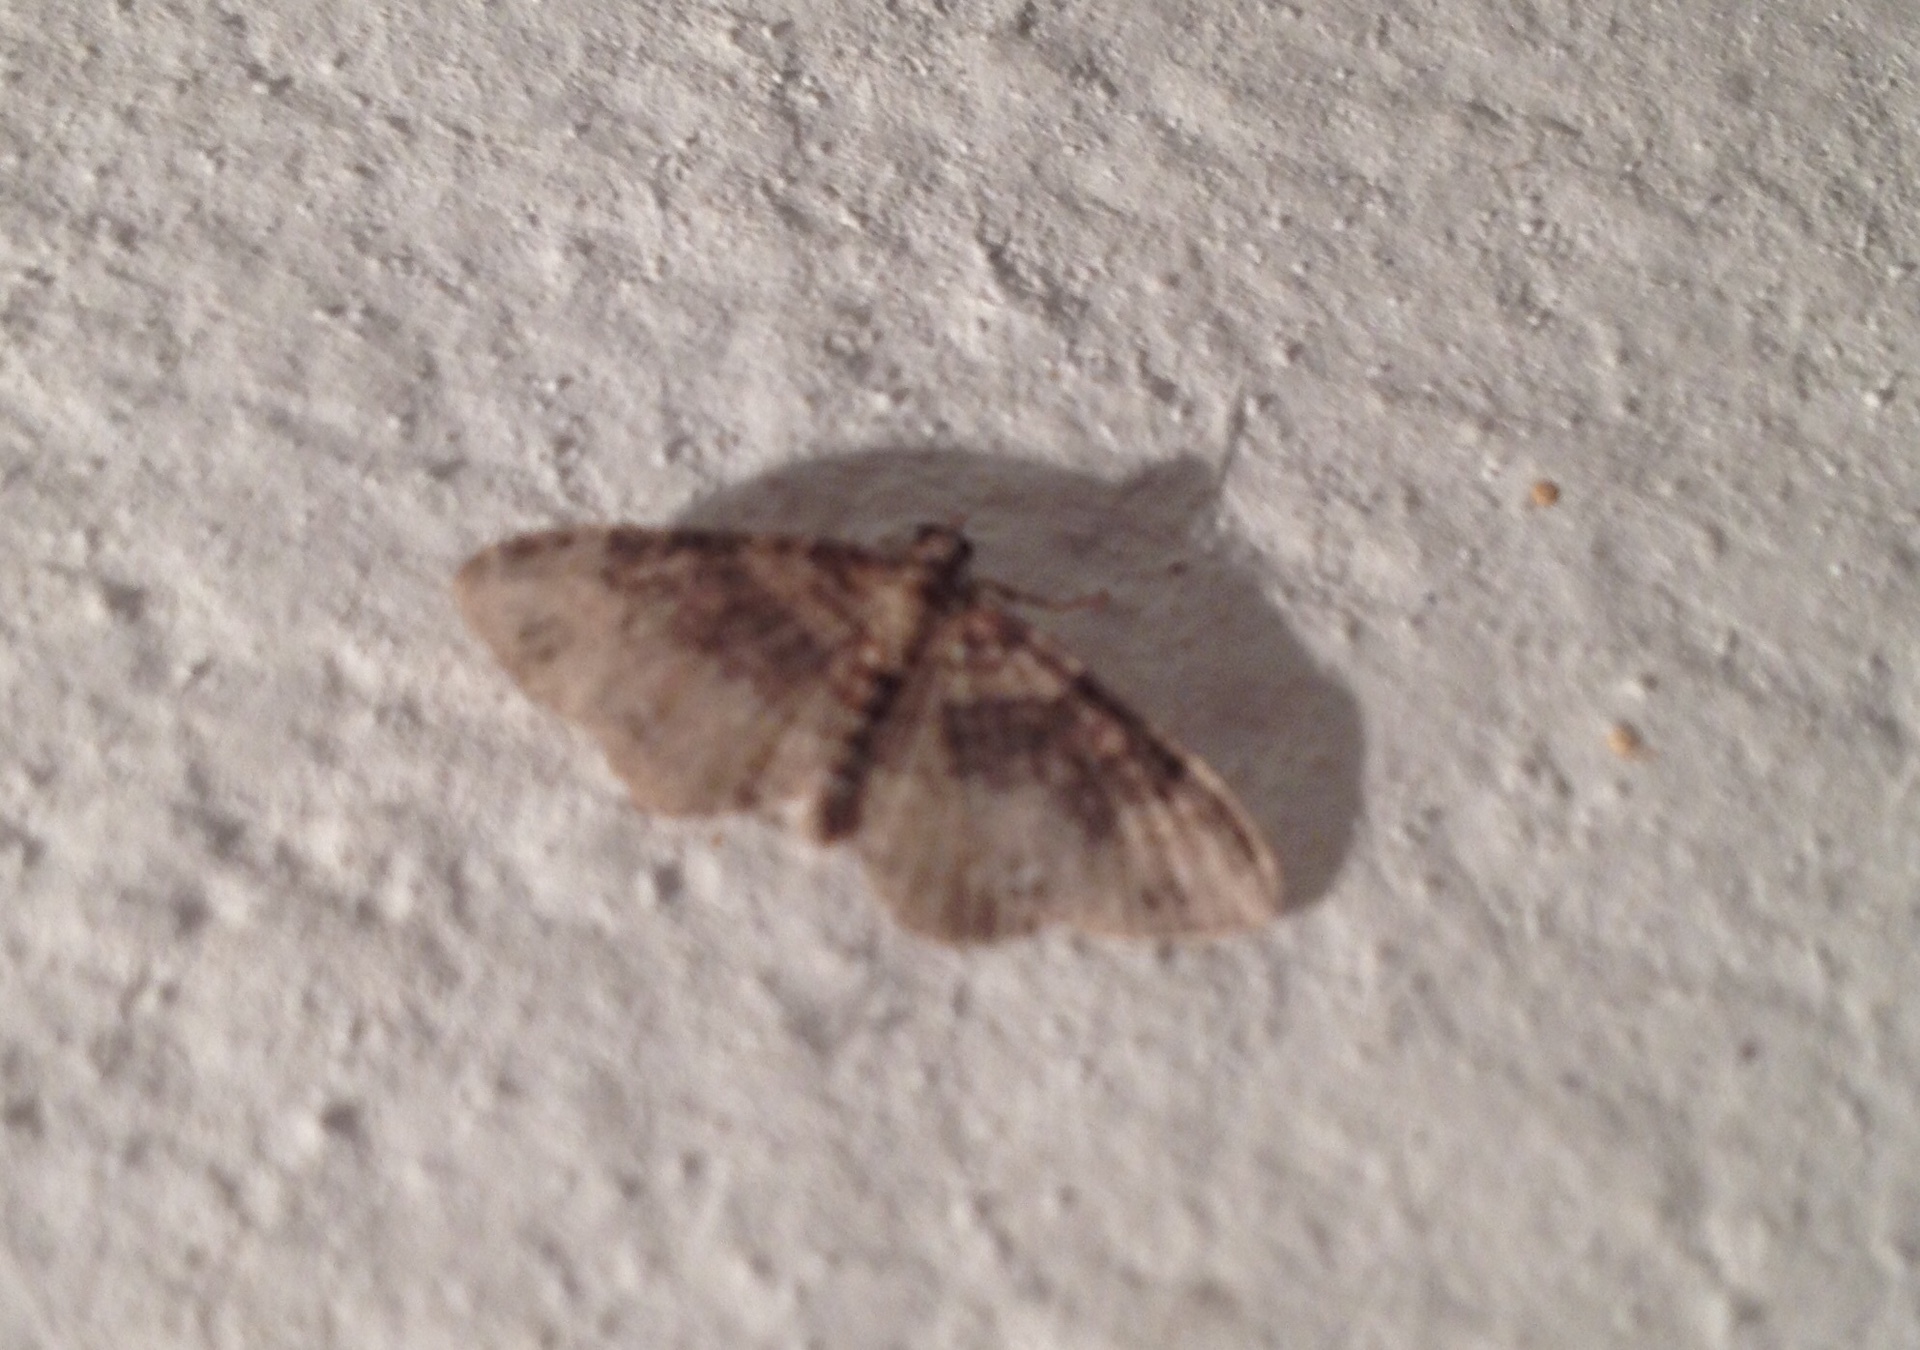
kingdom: Animalia
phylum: Arthropoda
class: Insecta
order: Lepidoptera
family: Geometridae
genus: Xanthorhoe
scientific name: Xanthorhoe ferrugata
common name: Dark-barred twin-spot carpet
